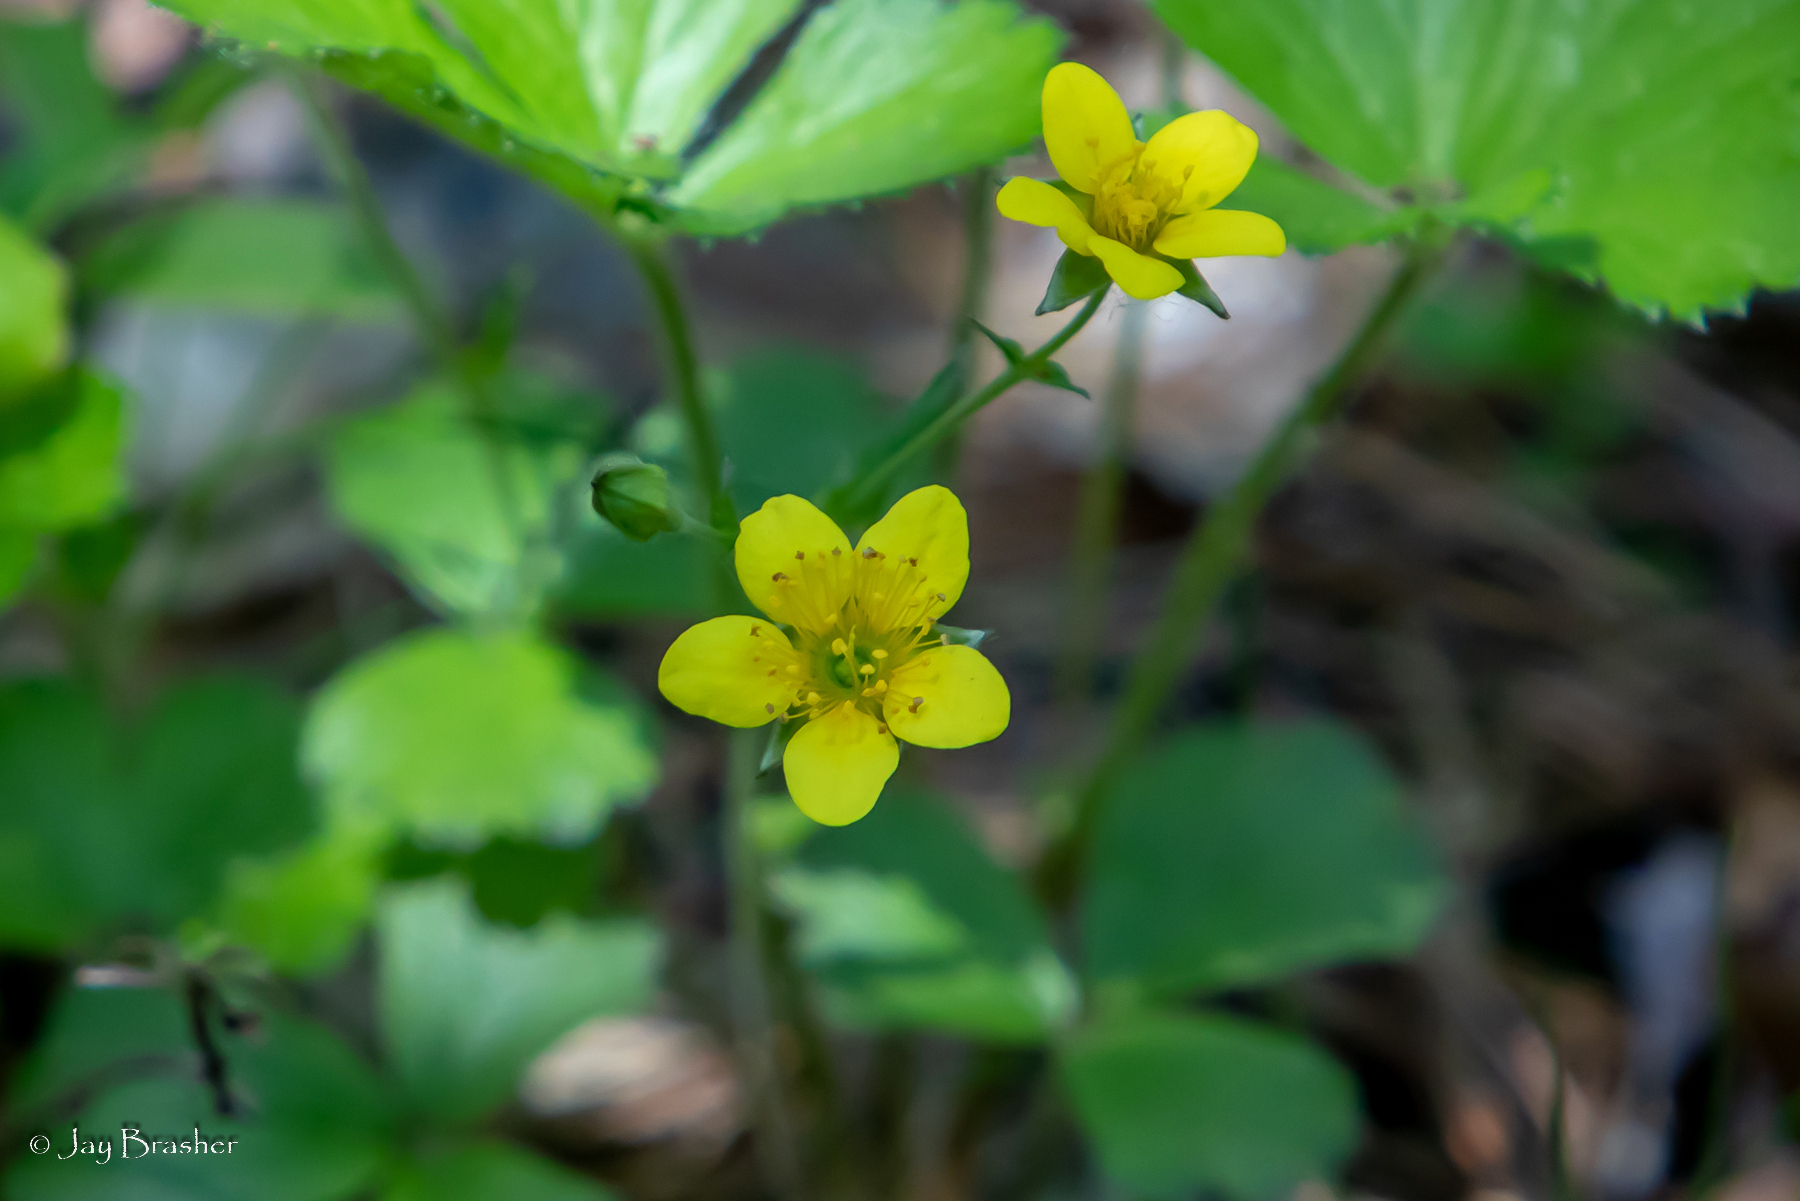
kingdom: Plantae
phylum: Tracheophyta
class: Magnoliopsida
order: Rosales
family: Rosaceae
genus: Geum
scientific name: Geum fragarioides
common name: Appalachian barren strawberry
